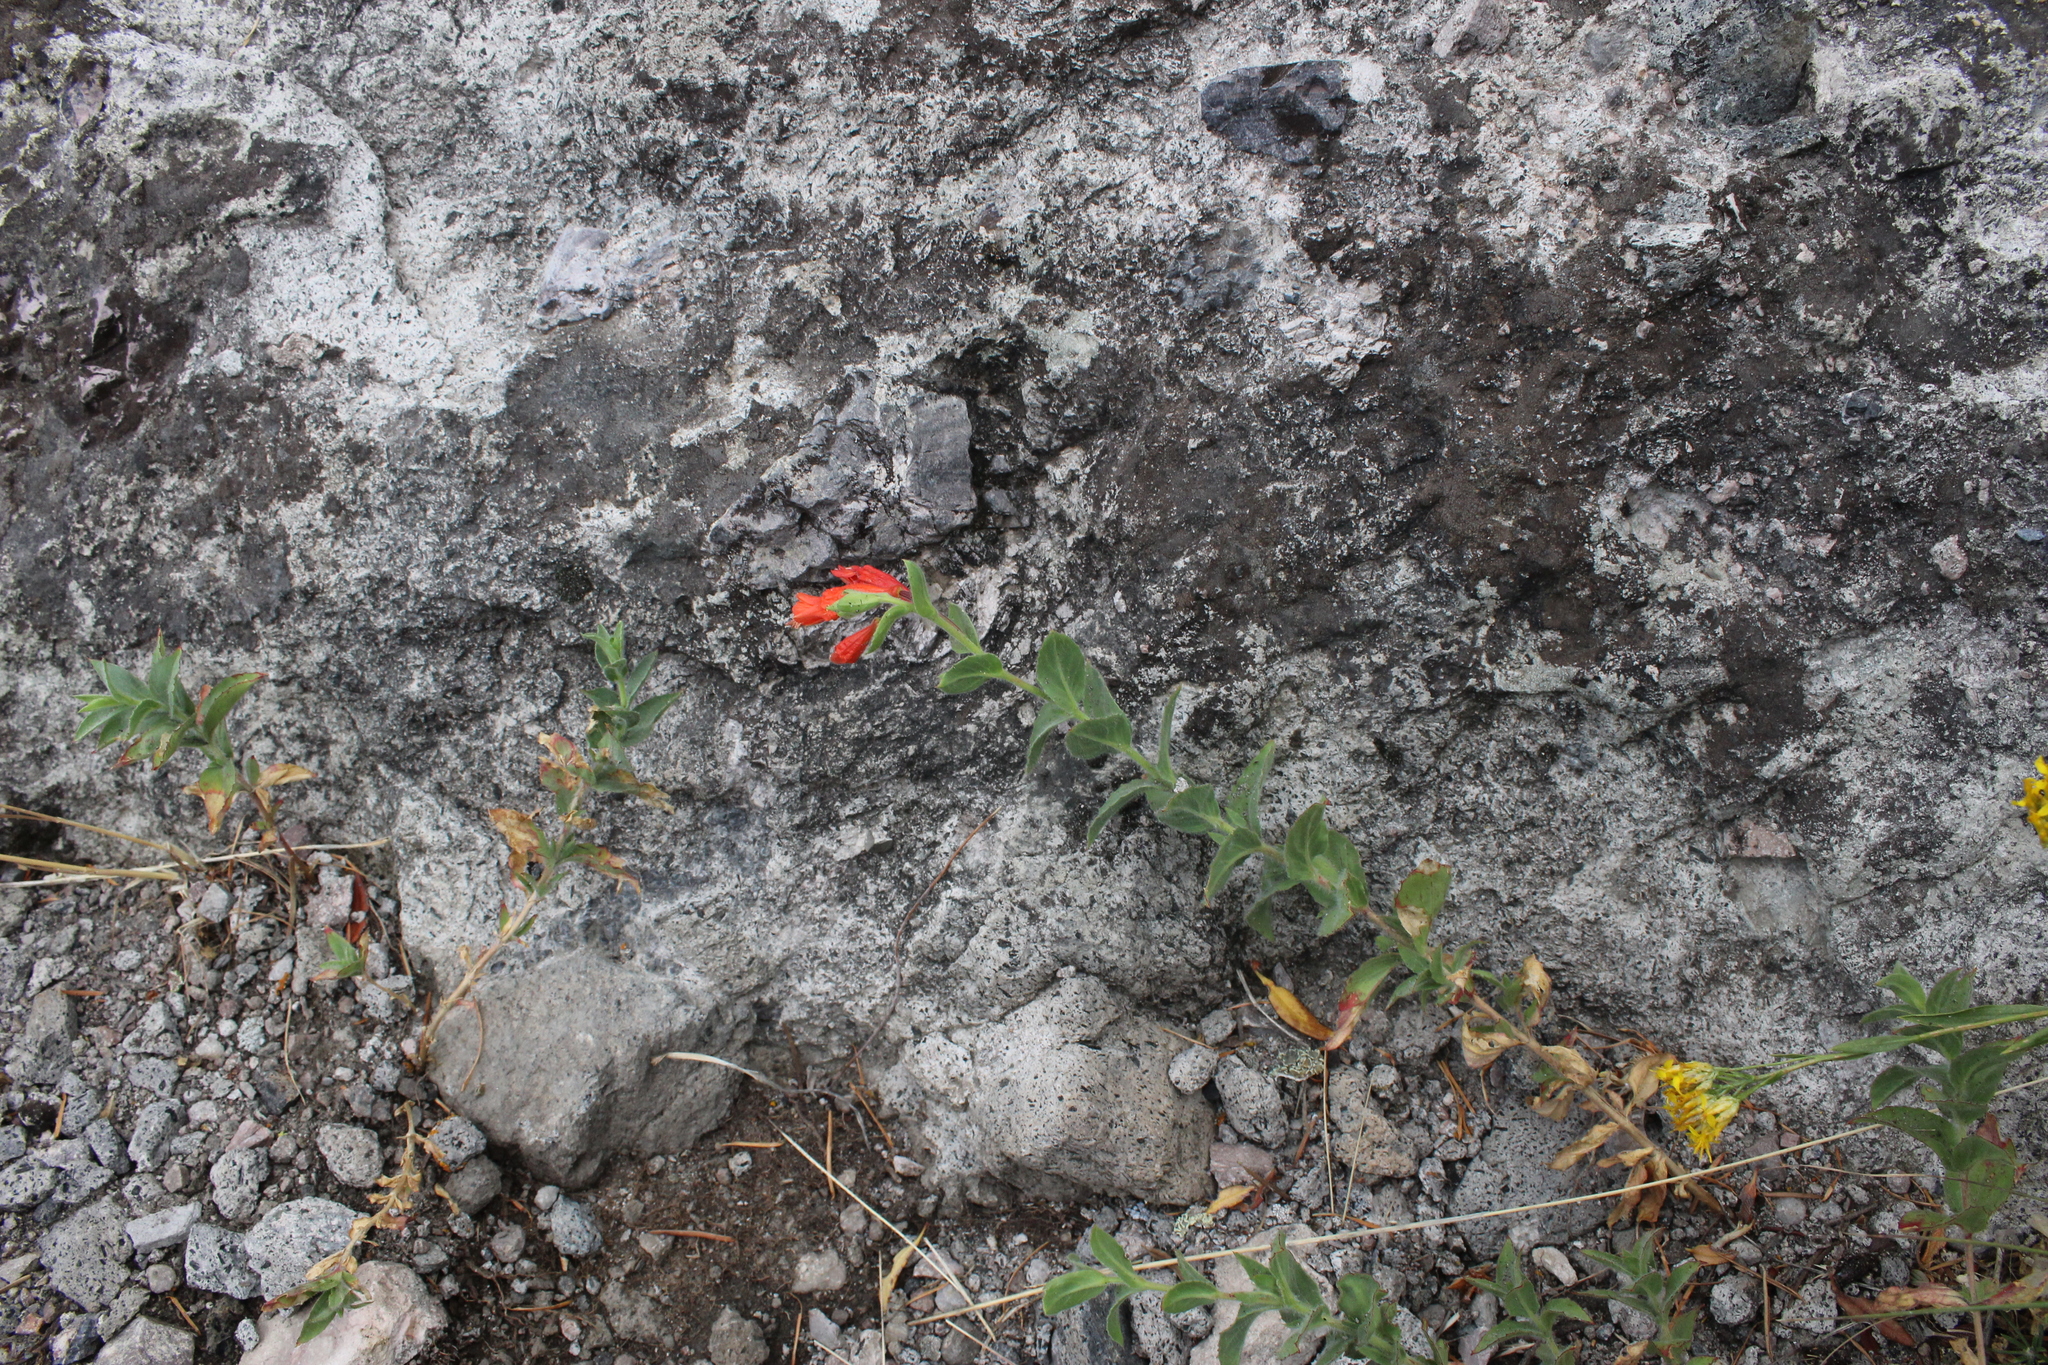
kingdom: Plantae
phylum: Tracheophyta
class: Magnoliopsida
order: Myrtales
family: Onagraceae
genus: Epilobium
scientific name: Epilobium canum
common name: California-fuchsia
